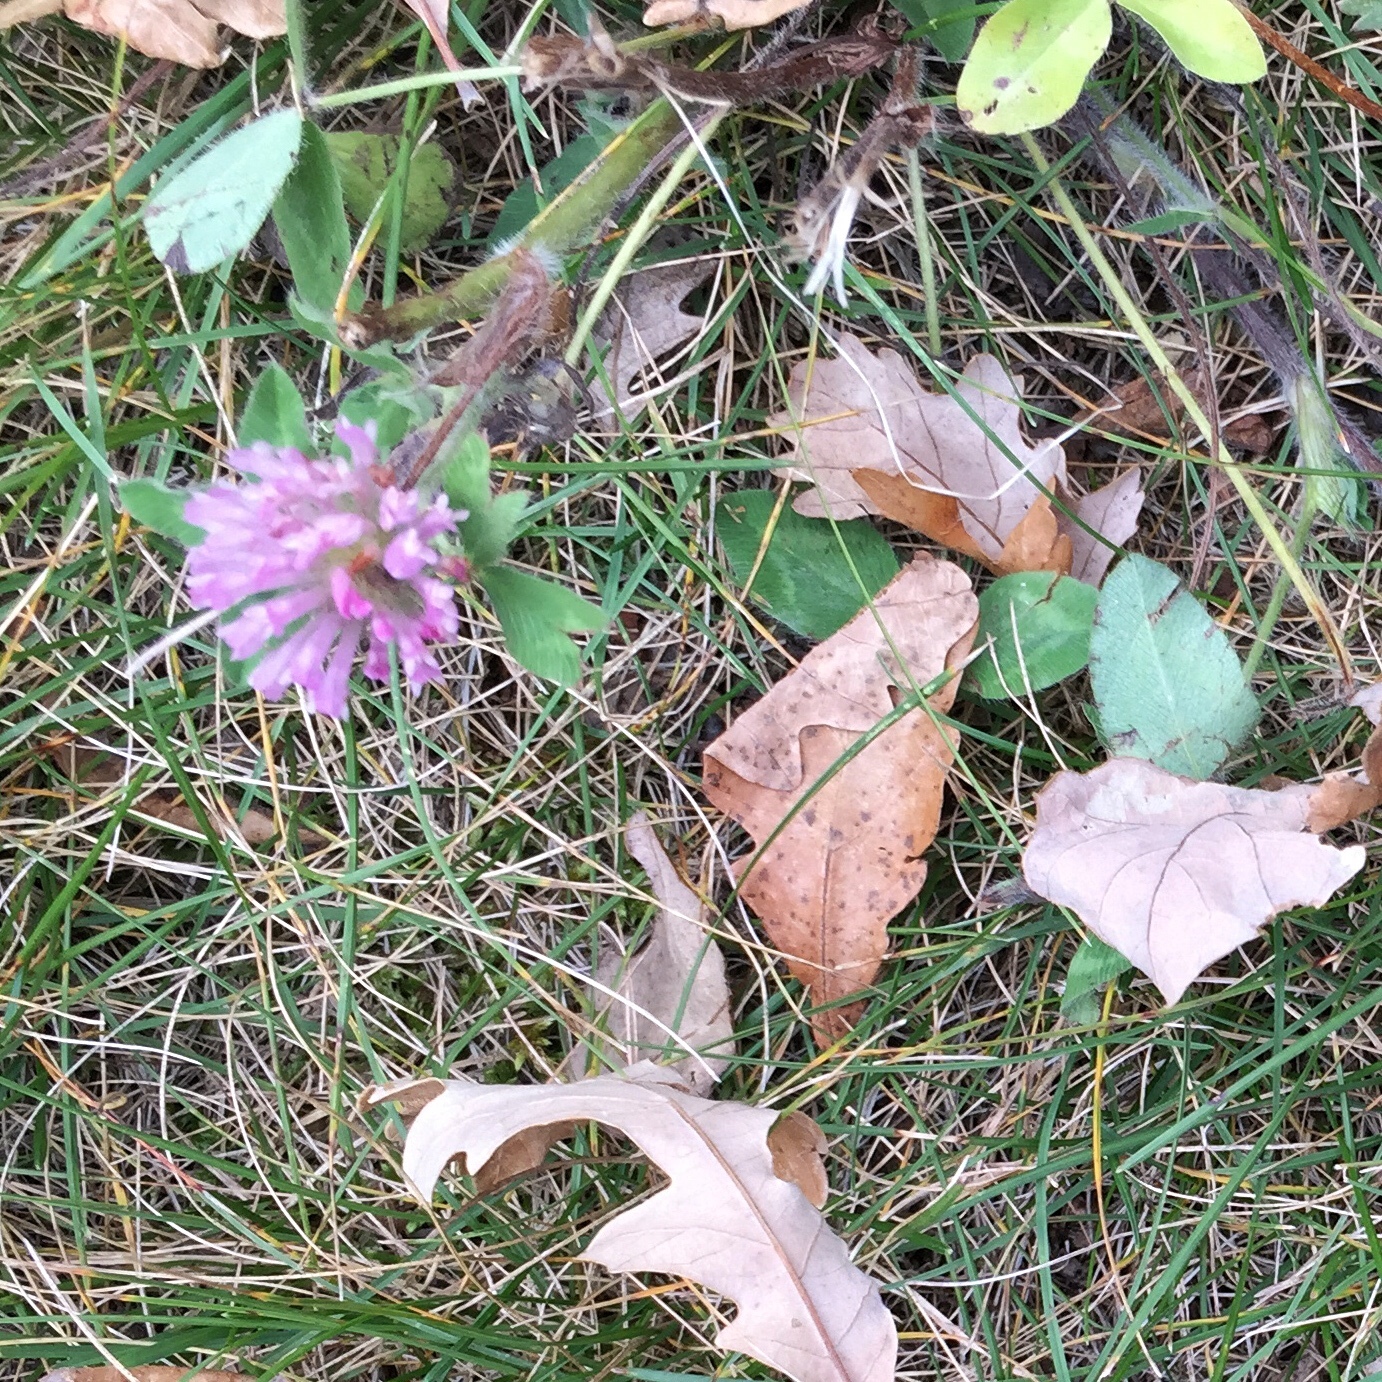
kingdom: Plantae
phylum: Tracheophyta
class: Magnoliopsida
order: Fabales
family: Fabaceae
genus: Trifolium
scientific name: Trifolium pratense
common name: Red clover
